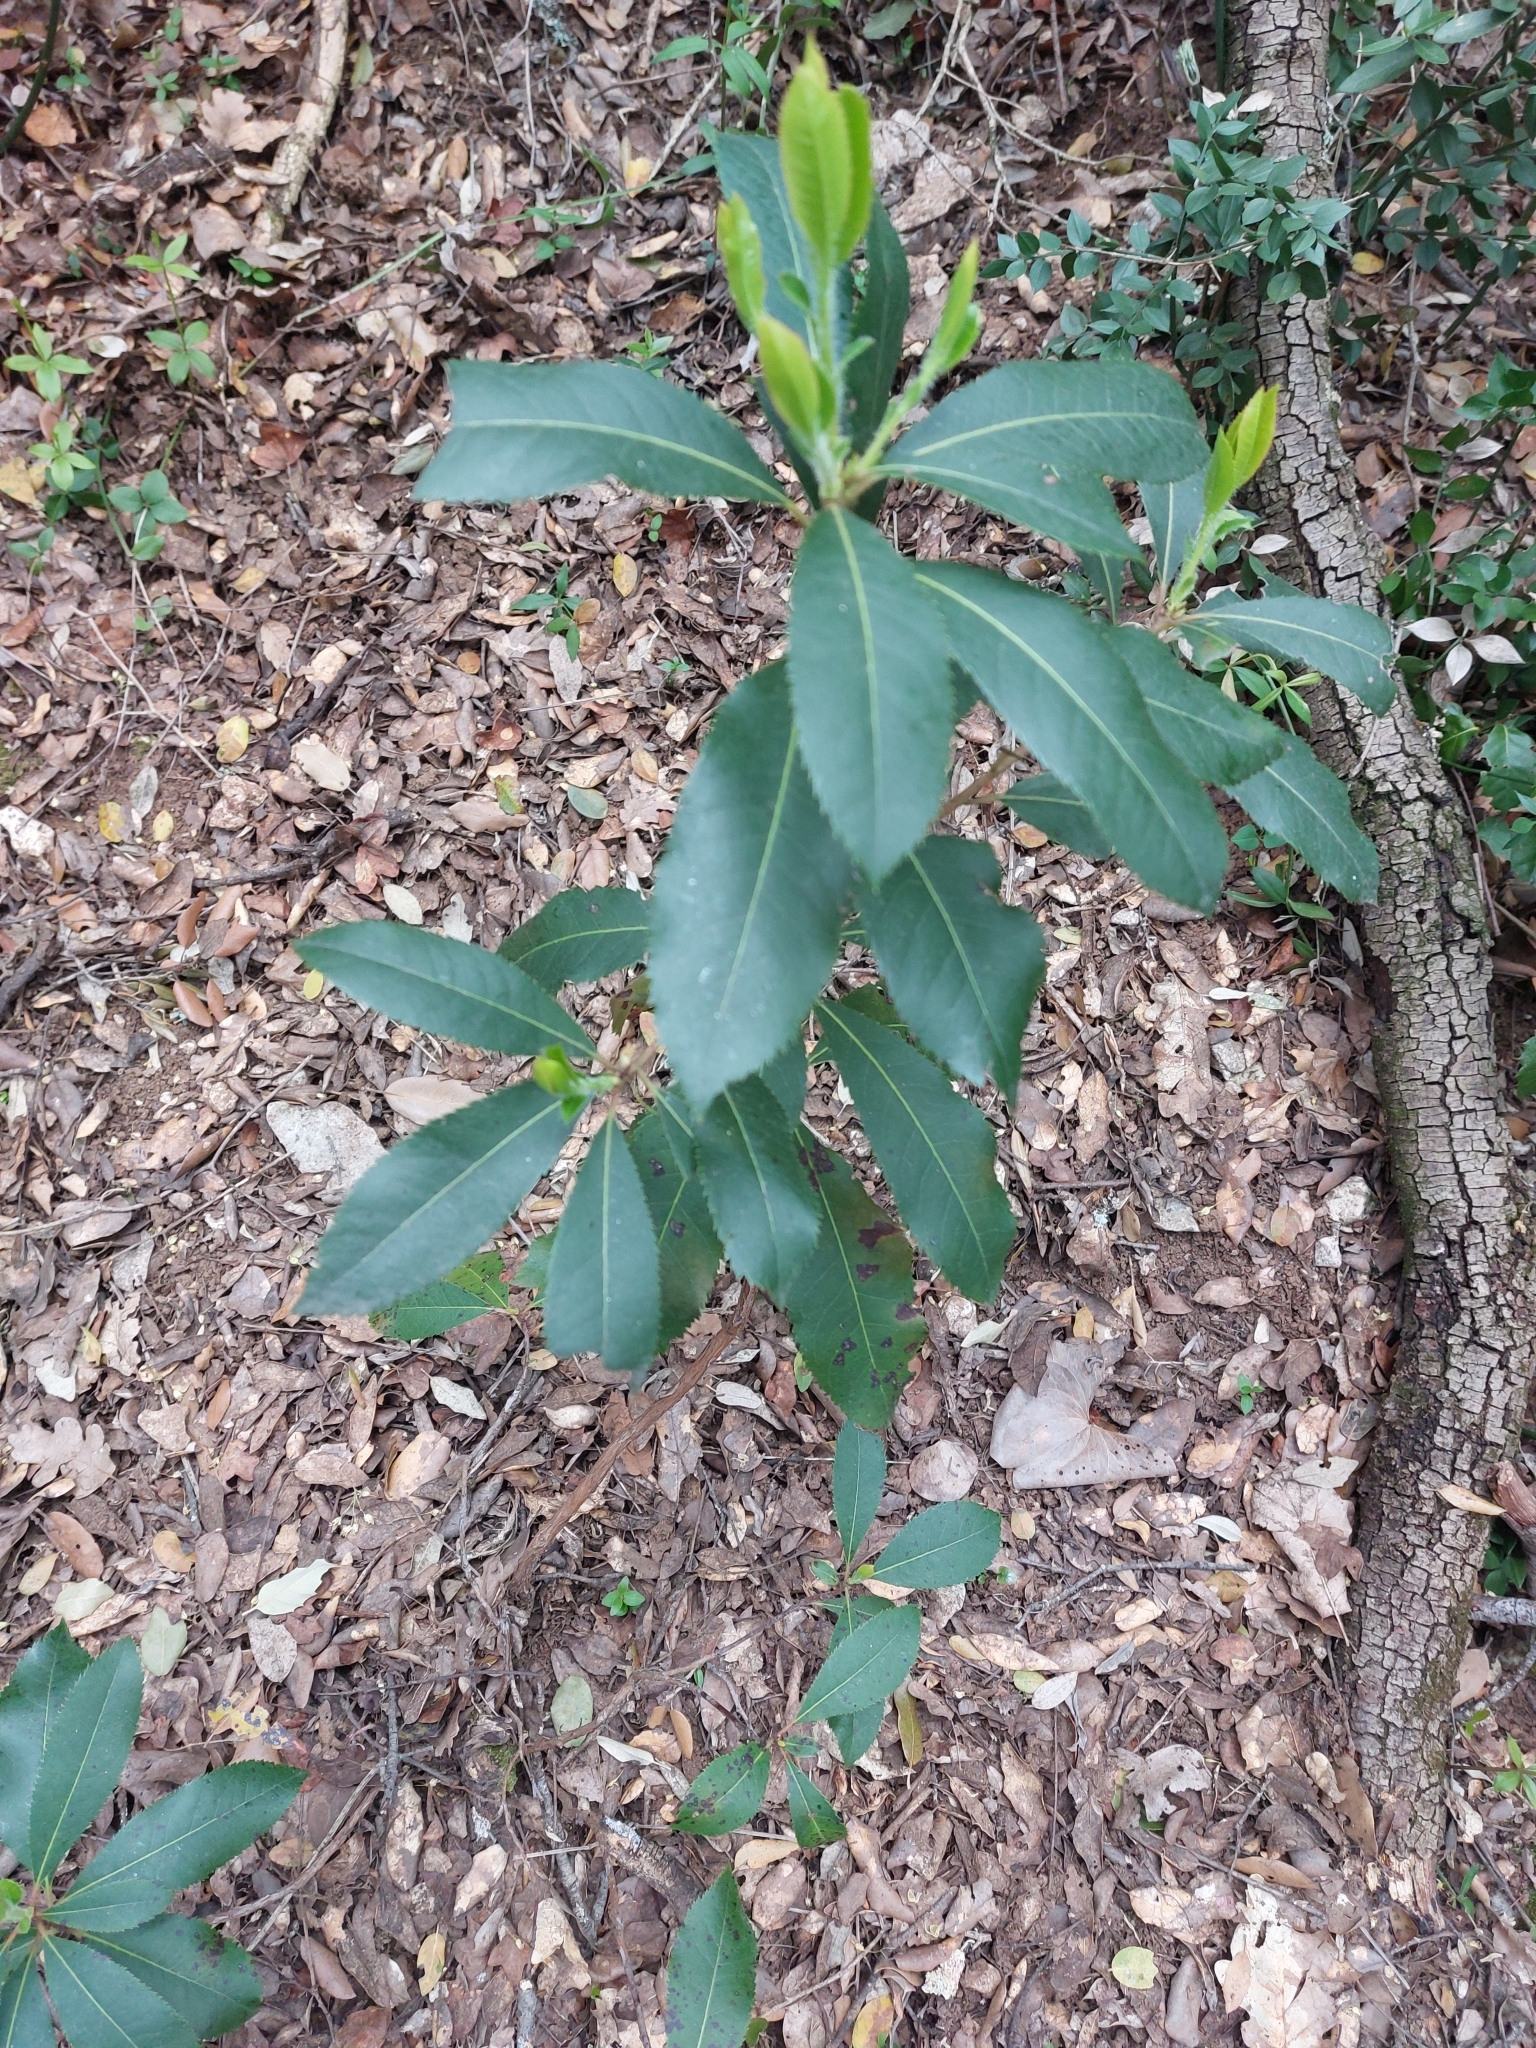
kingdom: Plantae
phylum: Tracheophyta
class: Magnoliopsida
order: Ericales
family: Ericaceae
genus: Arbutus
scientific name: Arbutus unedo
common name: Strawberry-tree
